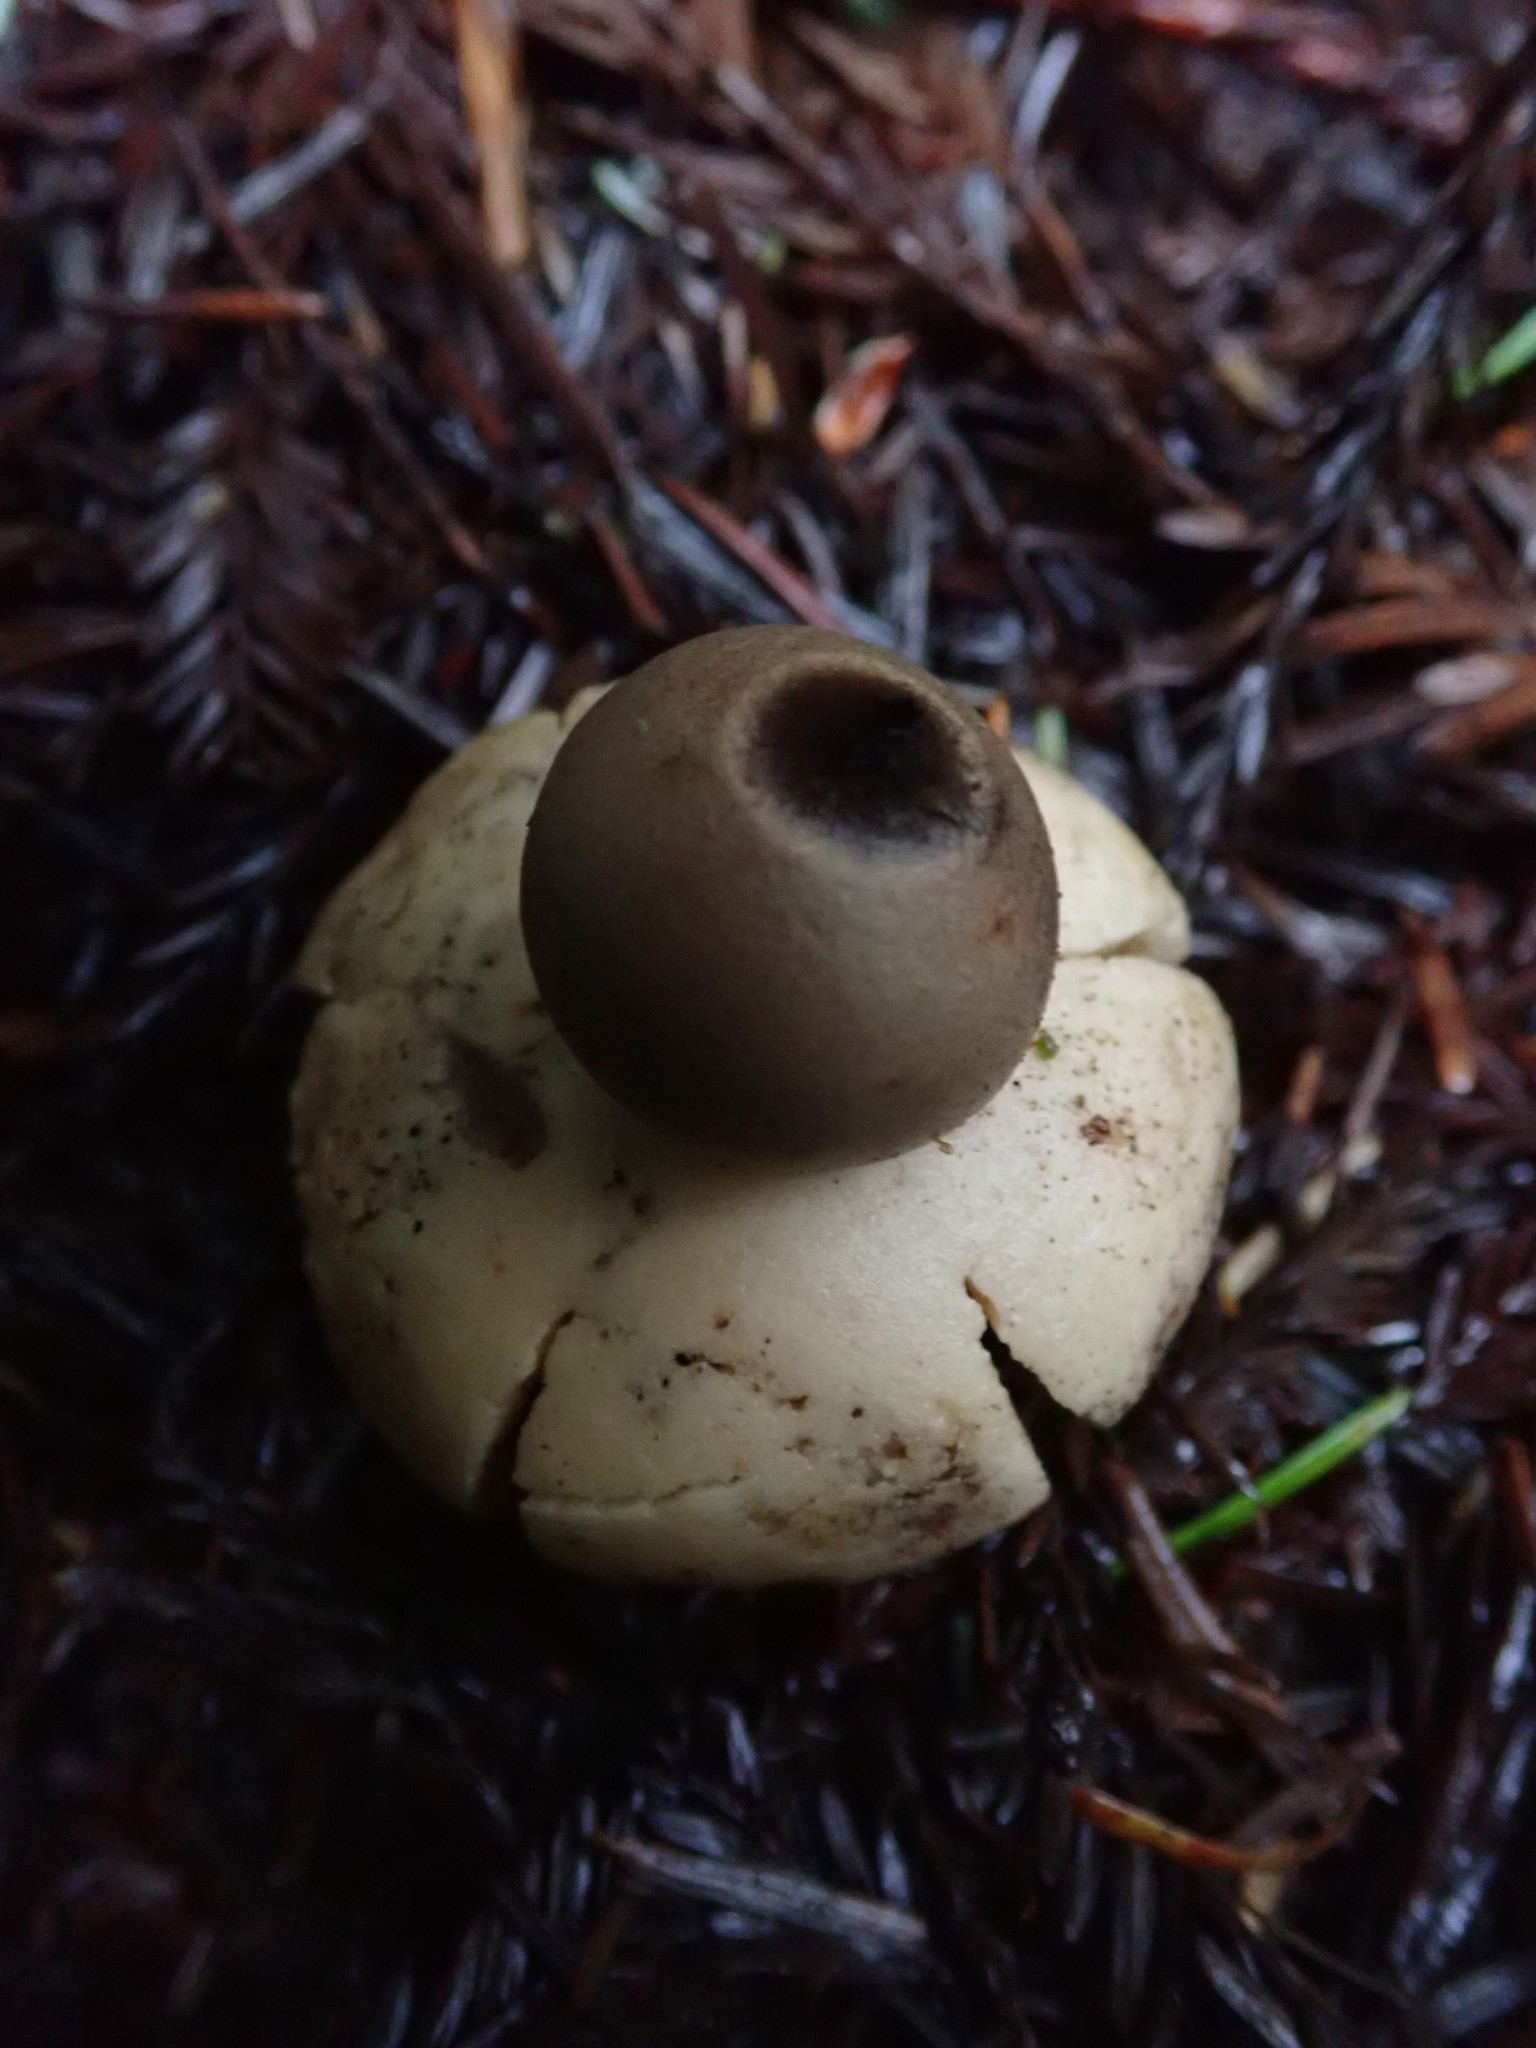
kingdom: Fungi
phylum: Basidiomycota
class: Agaricomycetes
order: Geastrales
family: Geastraceae
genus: Geastrum
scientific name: Geastrum saccatum
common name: Rounded earthstar
